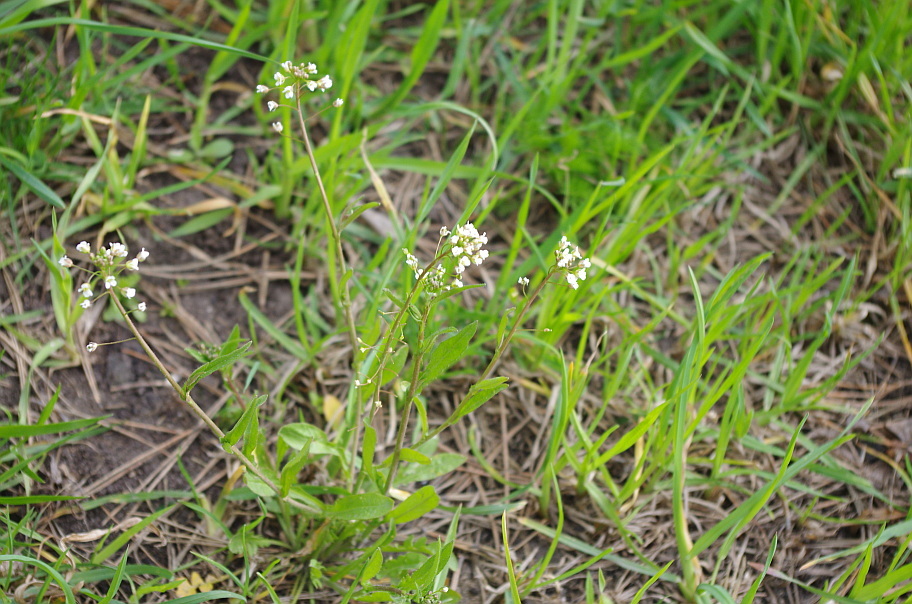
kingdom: Plantae
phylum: Tracheophyta
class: Magnoliopsida
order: Brassicales
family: Brassicaceae
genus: Capsella
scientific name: Capsella bursa-pastoris
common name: Shepherd's purse
